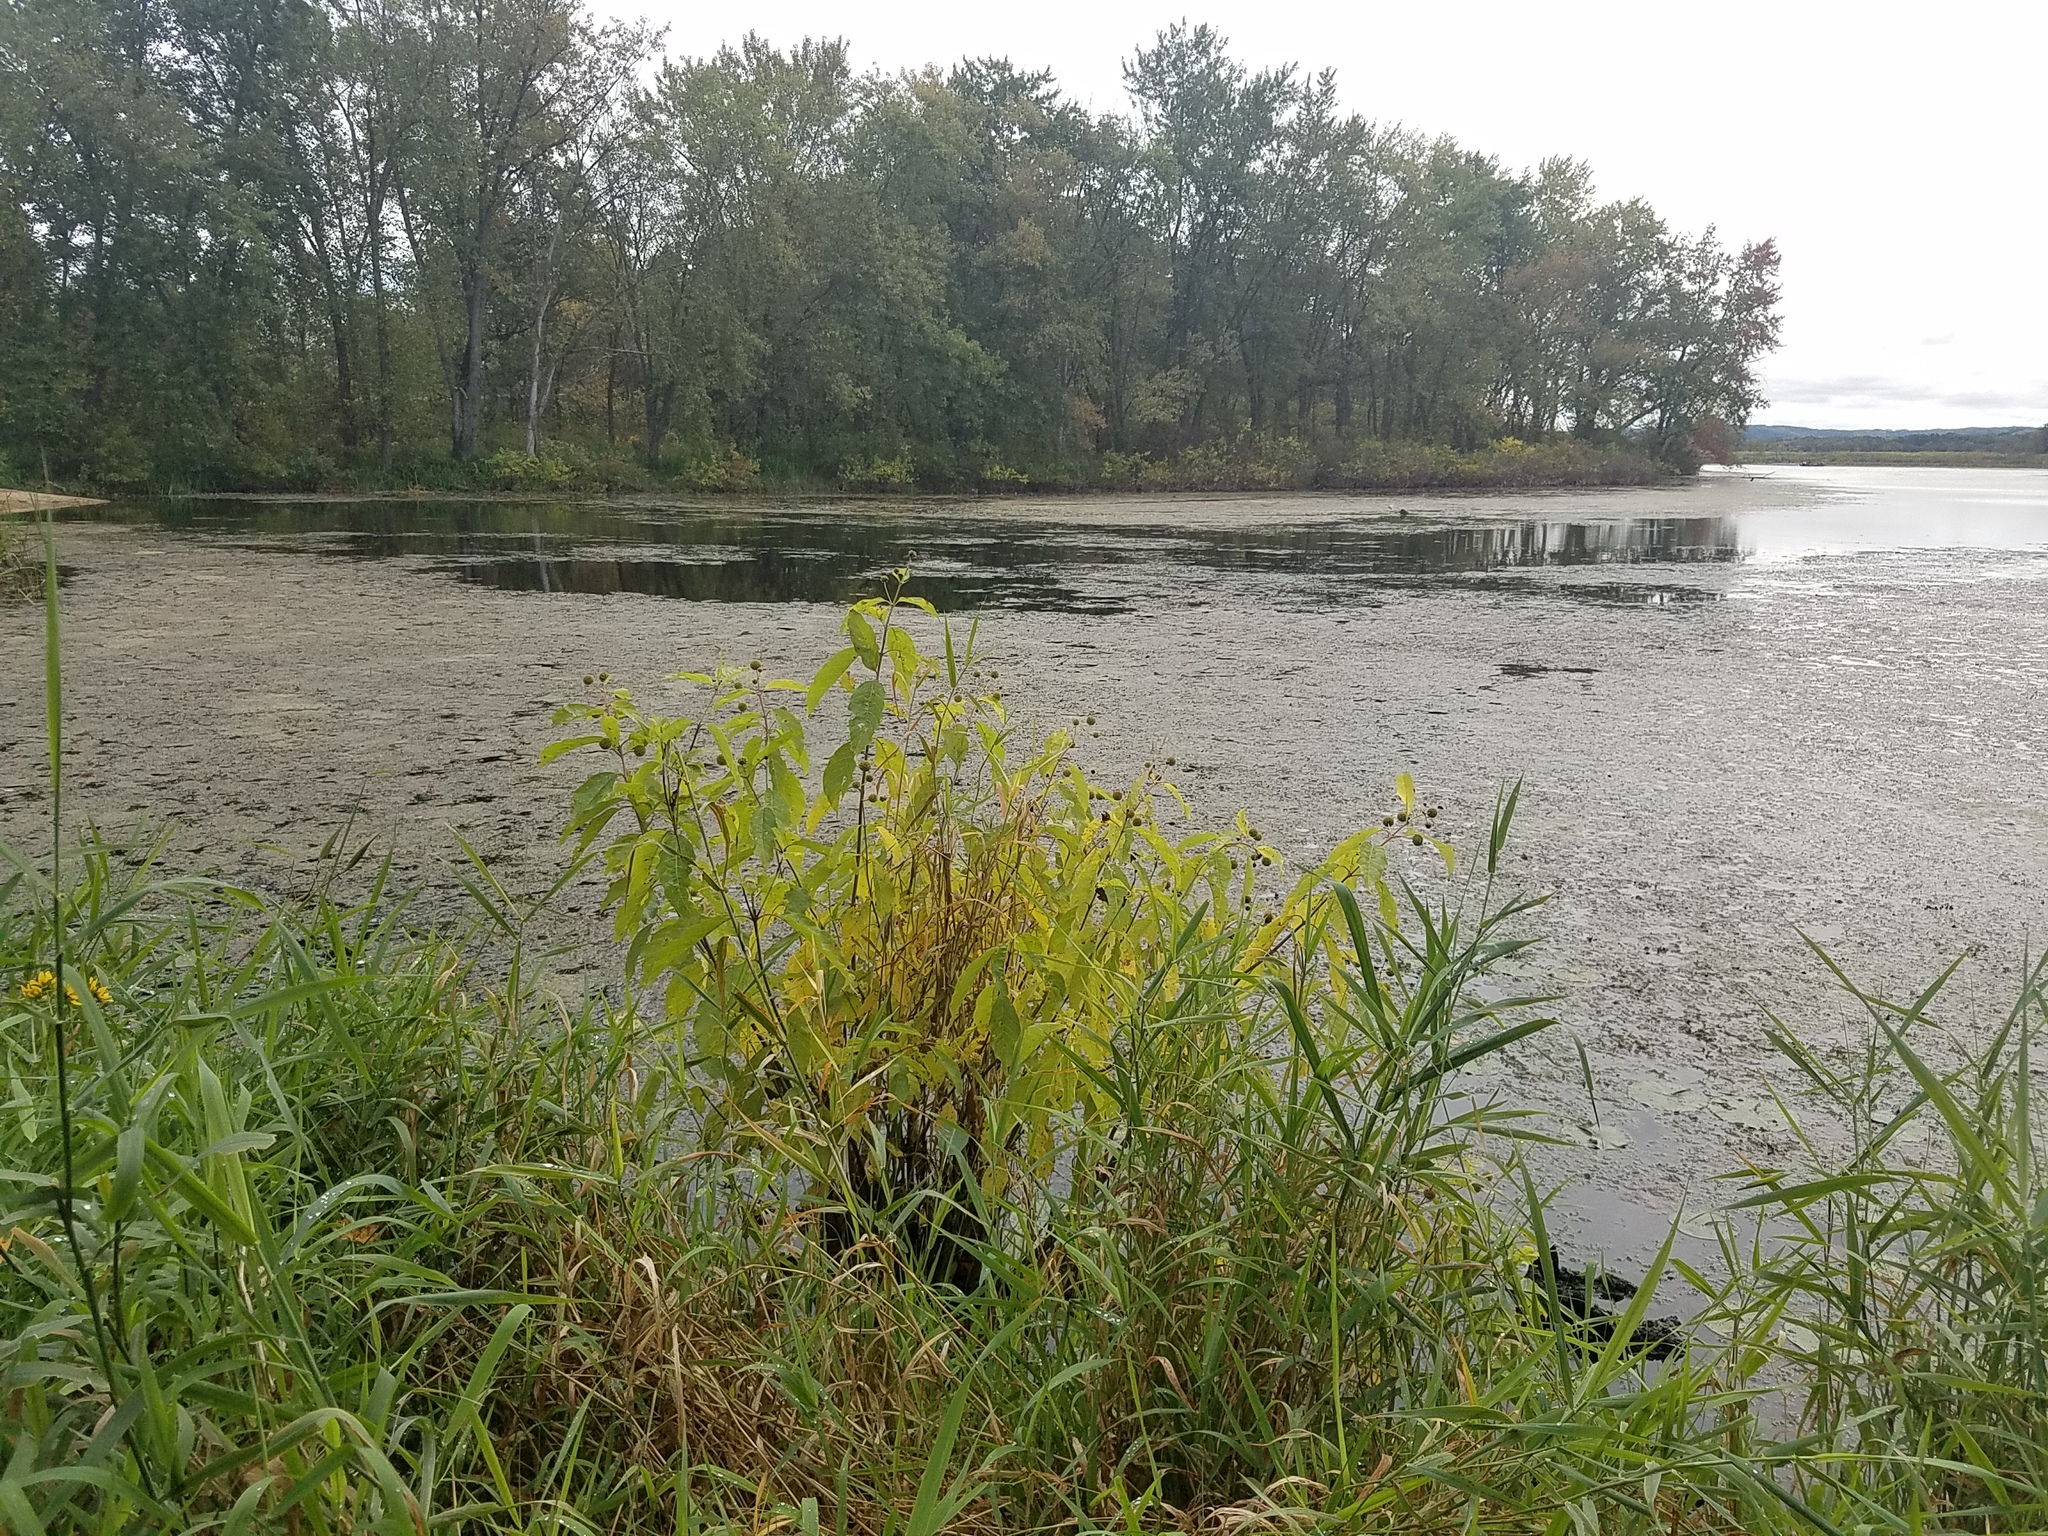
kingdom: Plantae
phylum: Tracheophyta
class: Magnoliopsida
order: Gentianales
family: Rubiaceae
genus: Cephalanthus
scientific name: Cephalanthus occidentalis
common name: Button-willow
